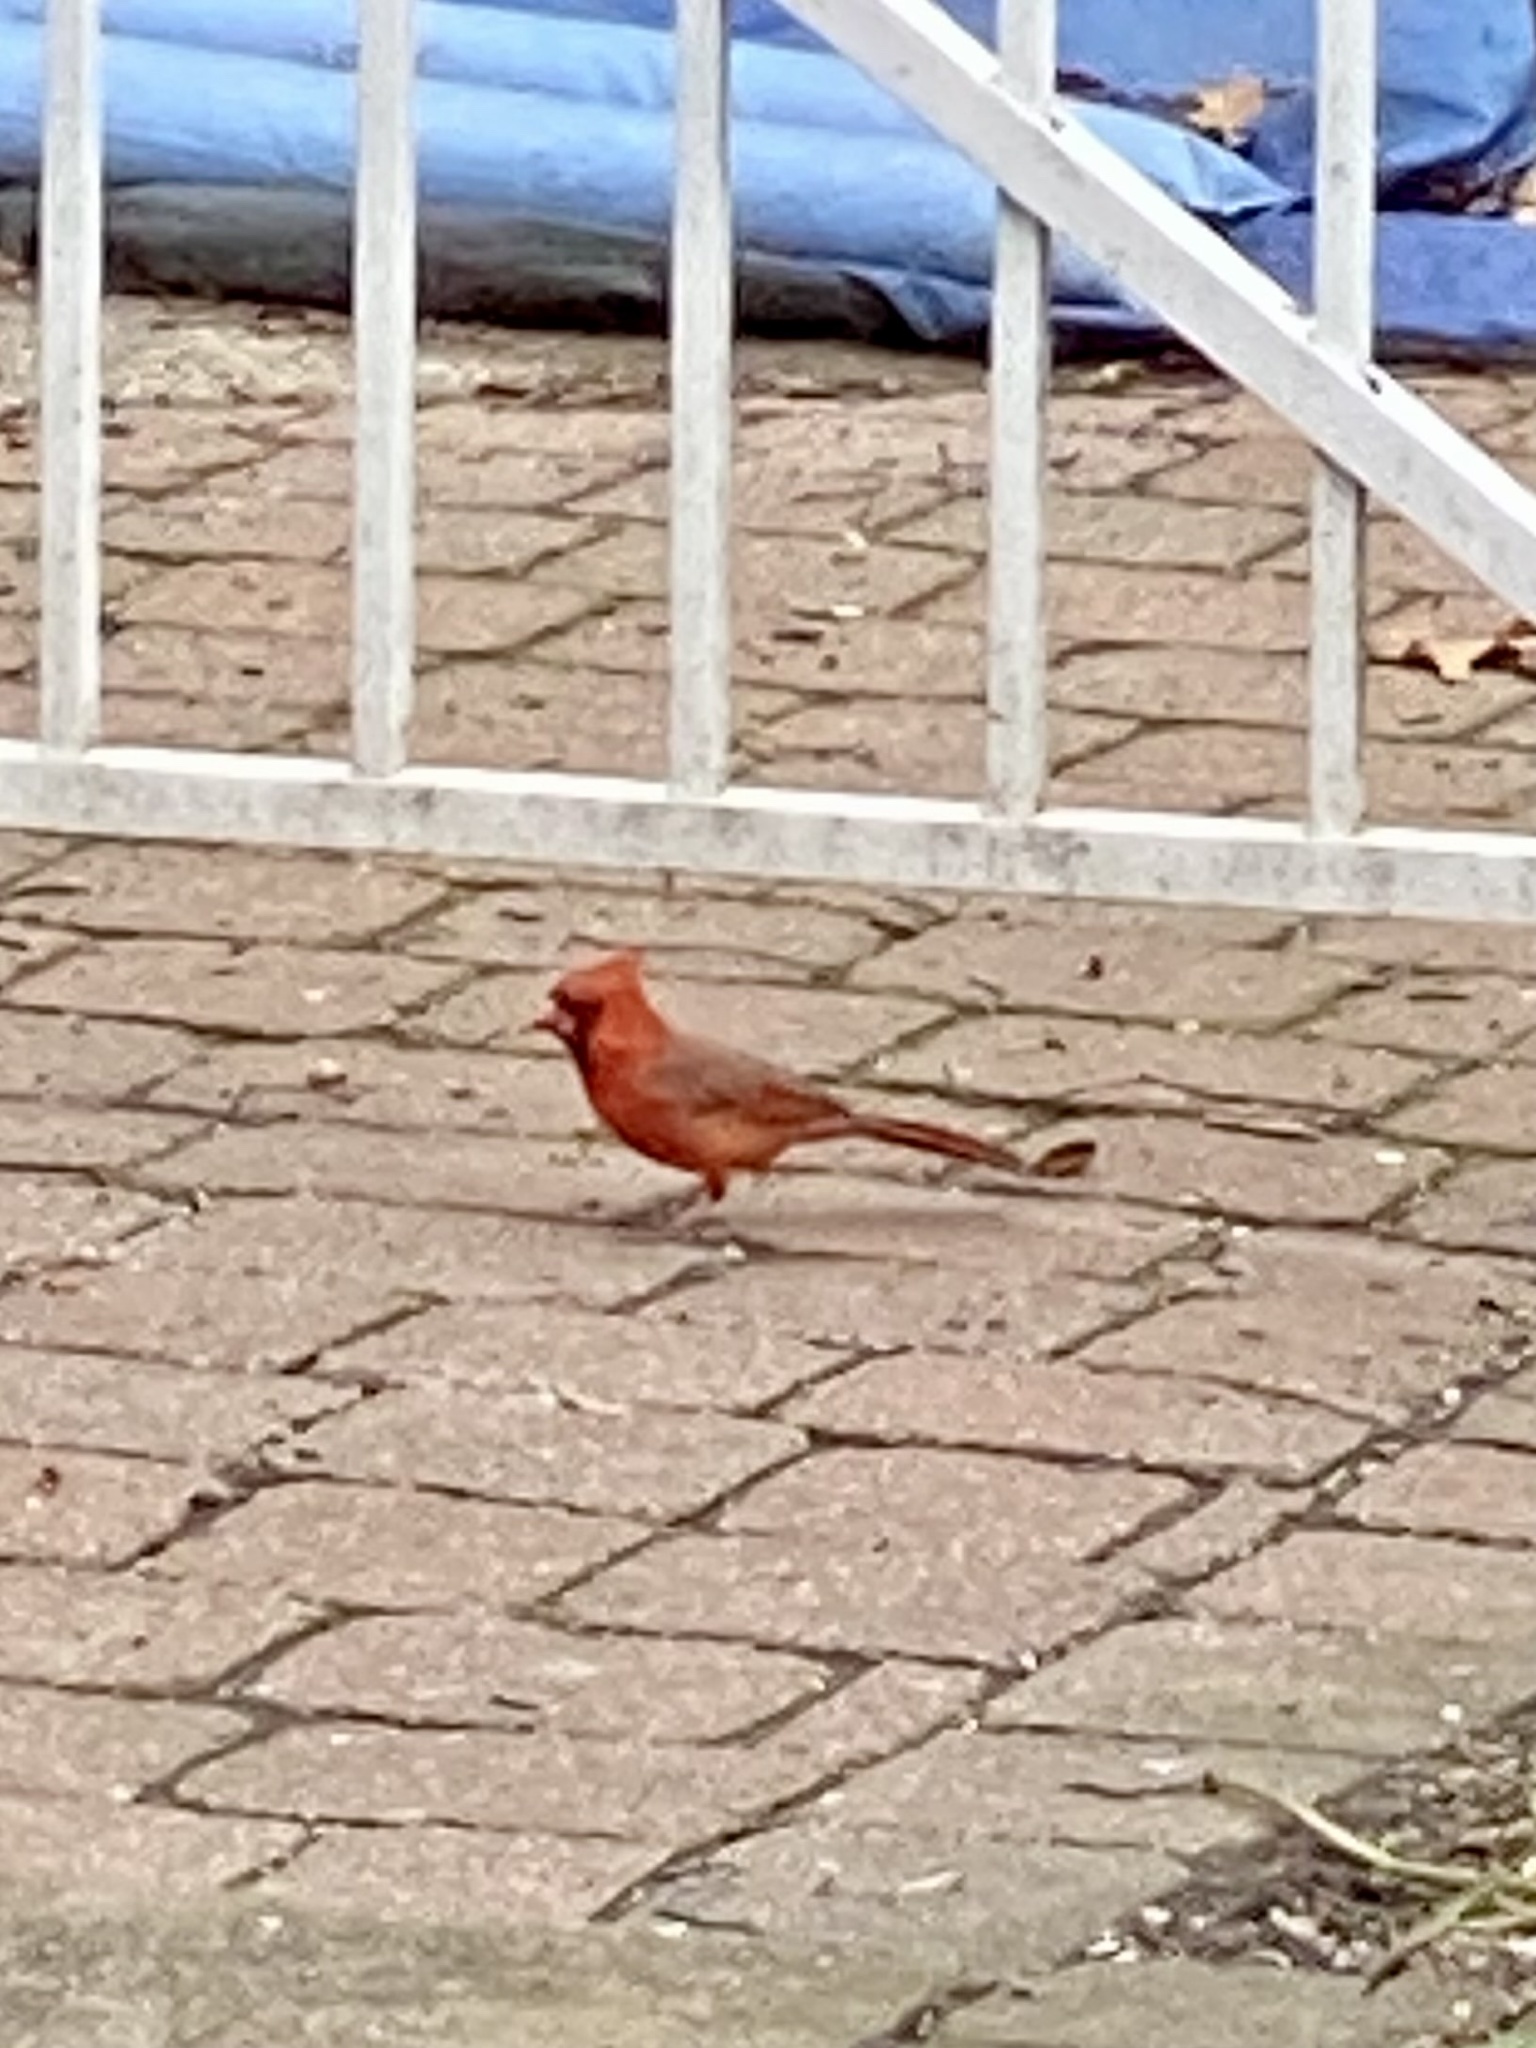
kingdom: Animalia
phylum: Chordata
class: Aves
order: Passeriformes
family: Cardinalidae
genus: Cardinalis
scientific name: Cardinalis cardinalis
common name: Northern cardinal
